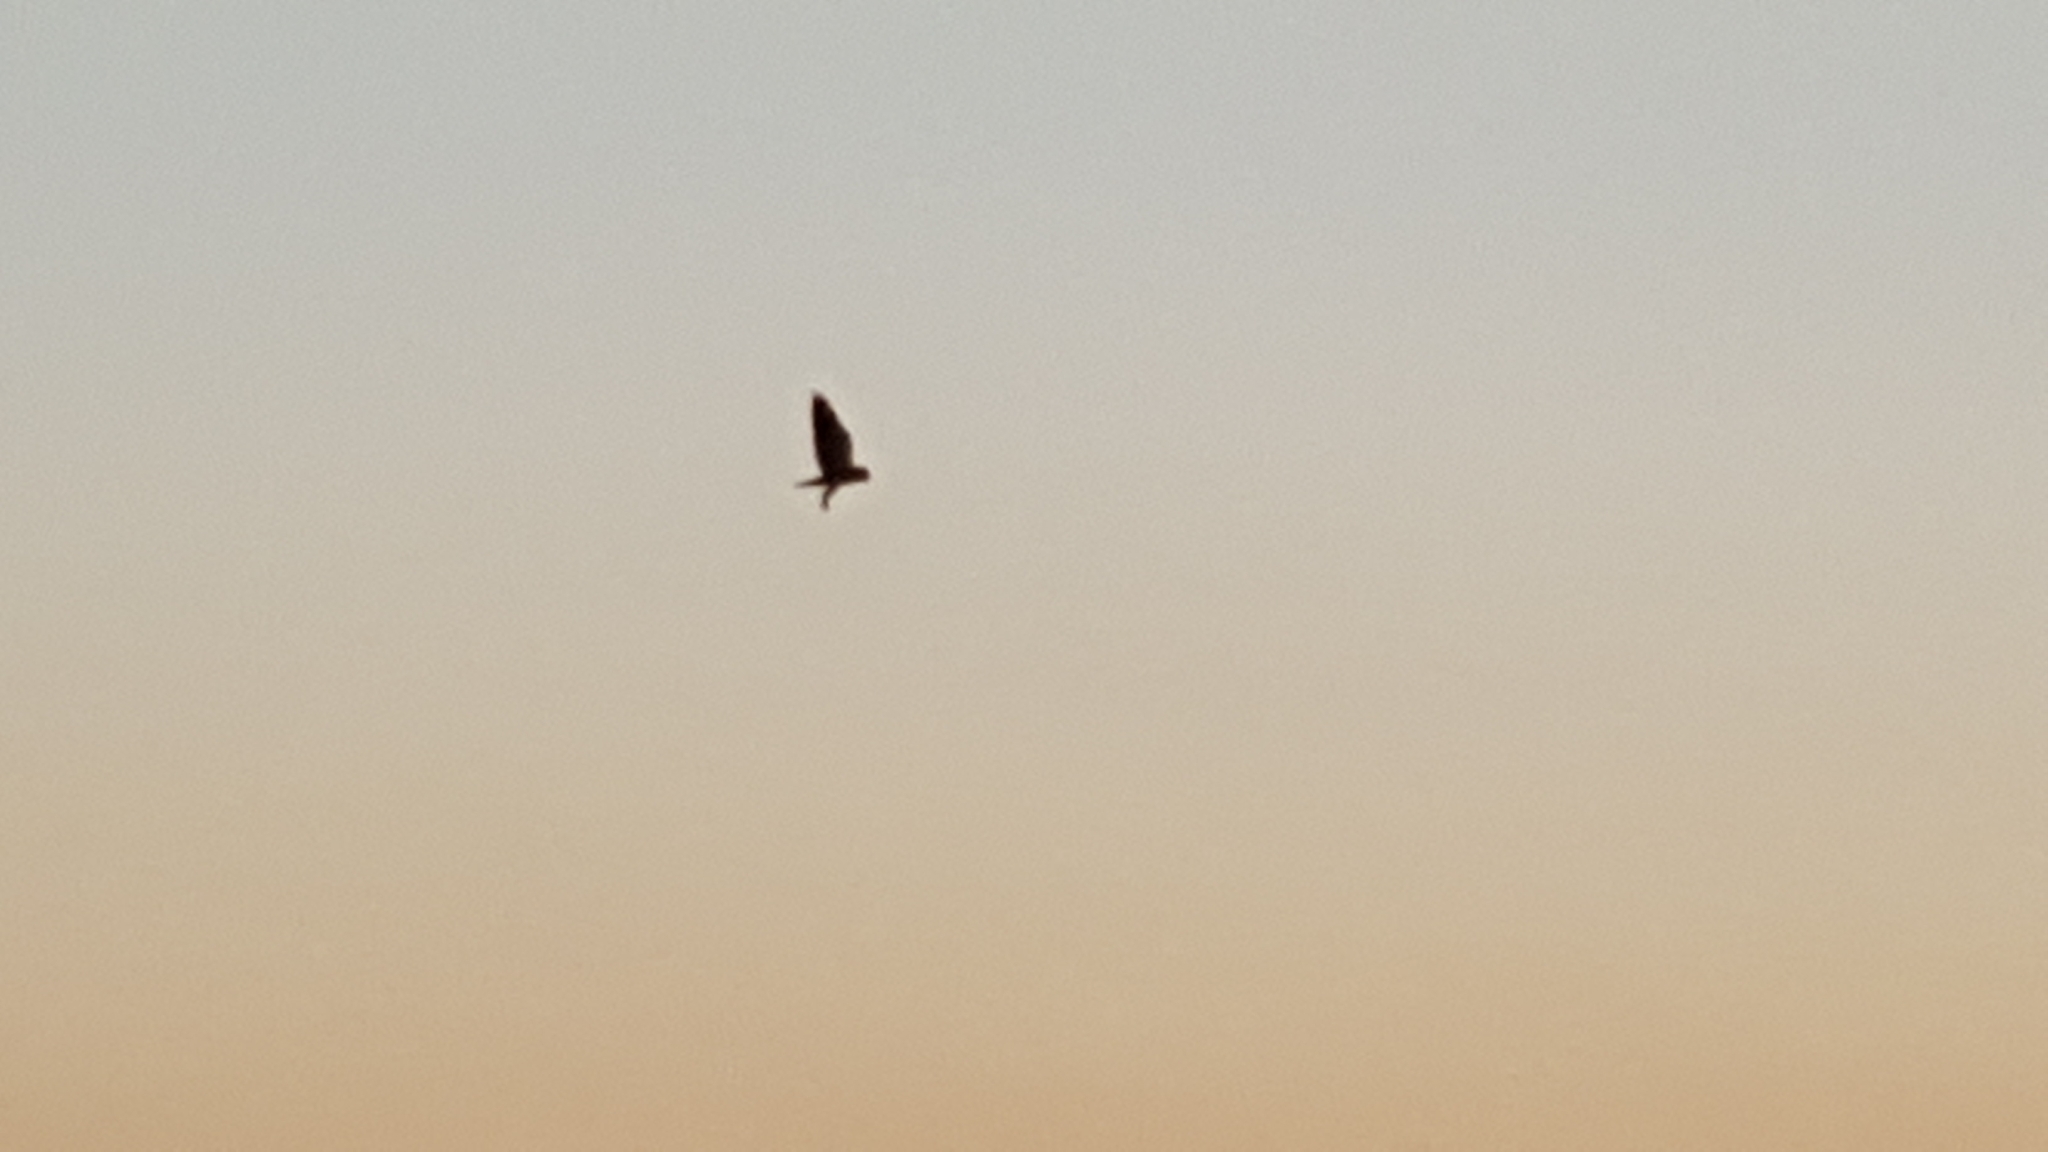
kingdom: Animalia
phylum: Chordata
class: Aves
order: Accipitriformes
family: Accipitridae
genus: Elanus
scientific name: Elanus caeruleus
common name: Black-winged kite
